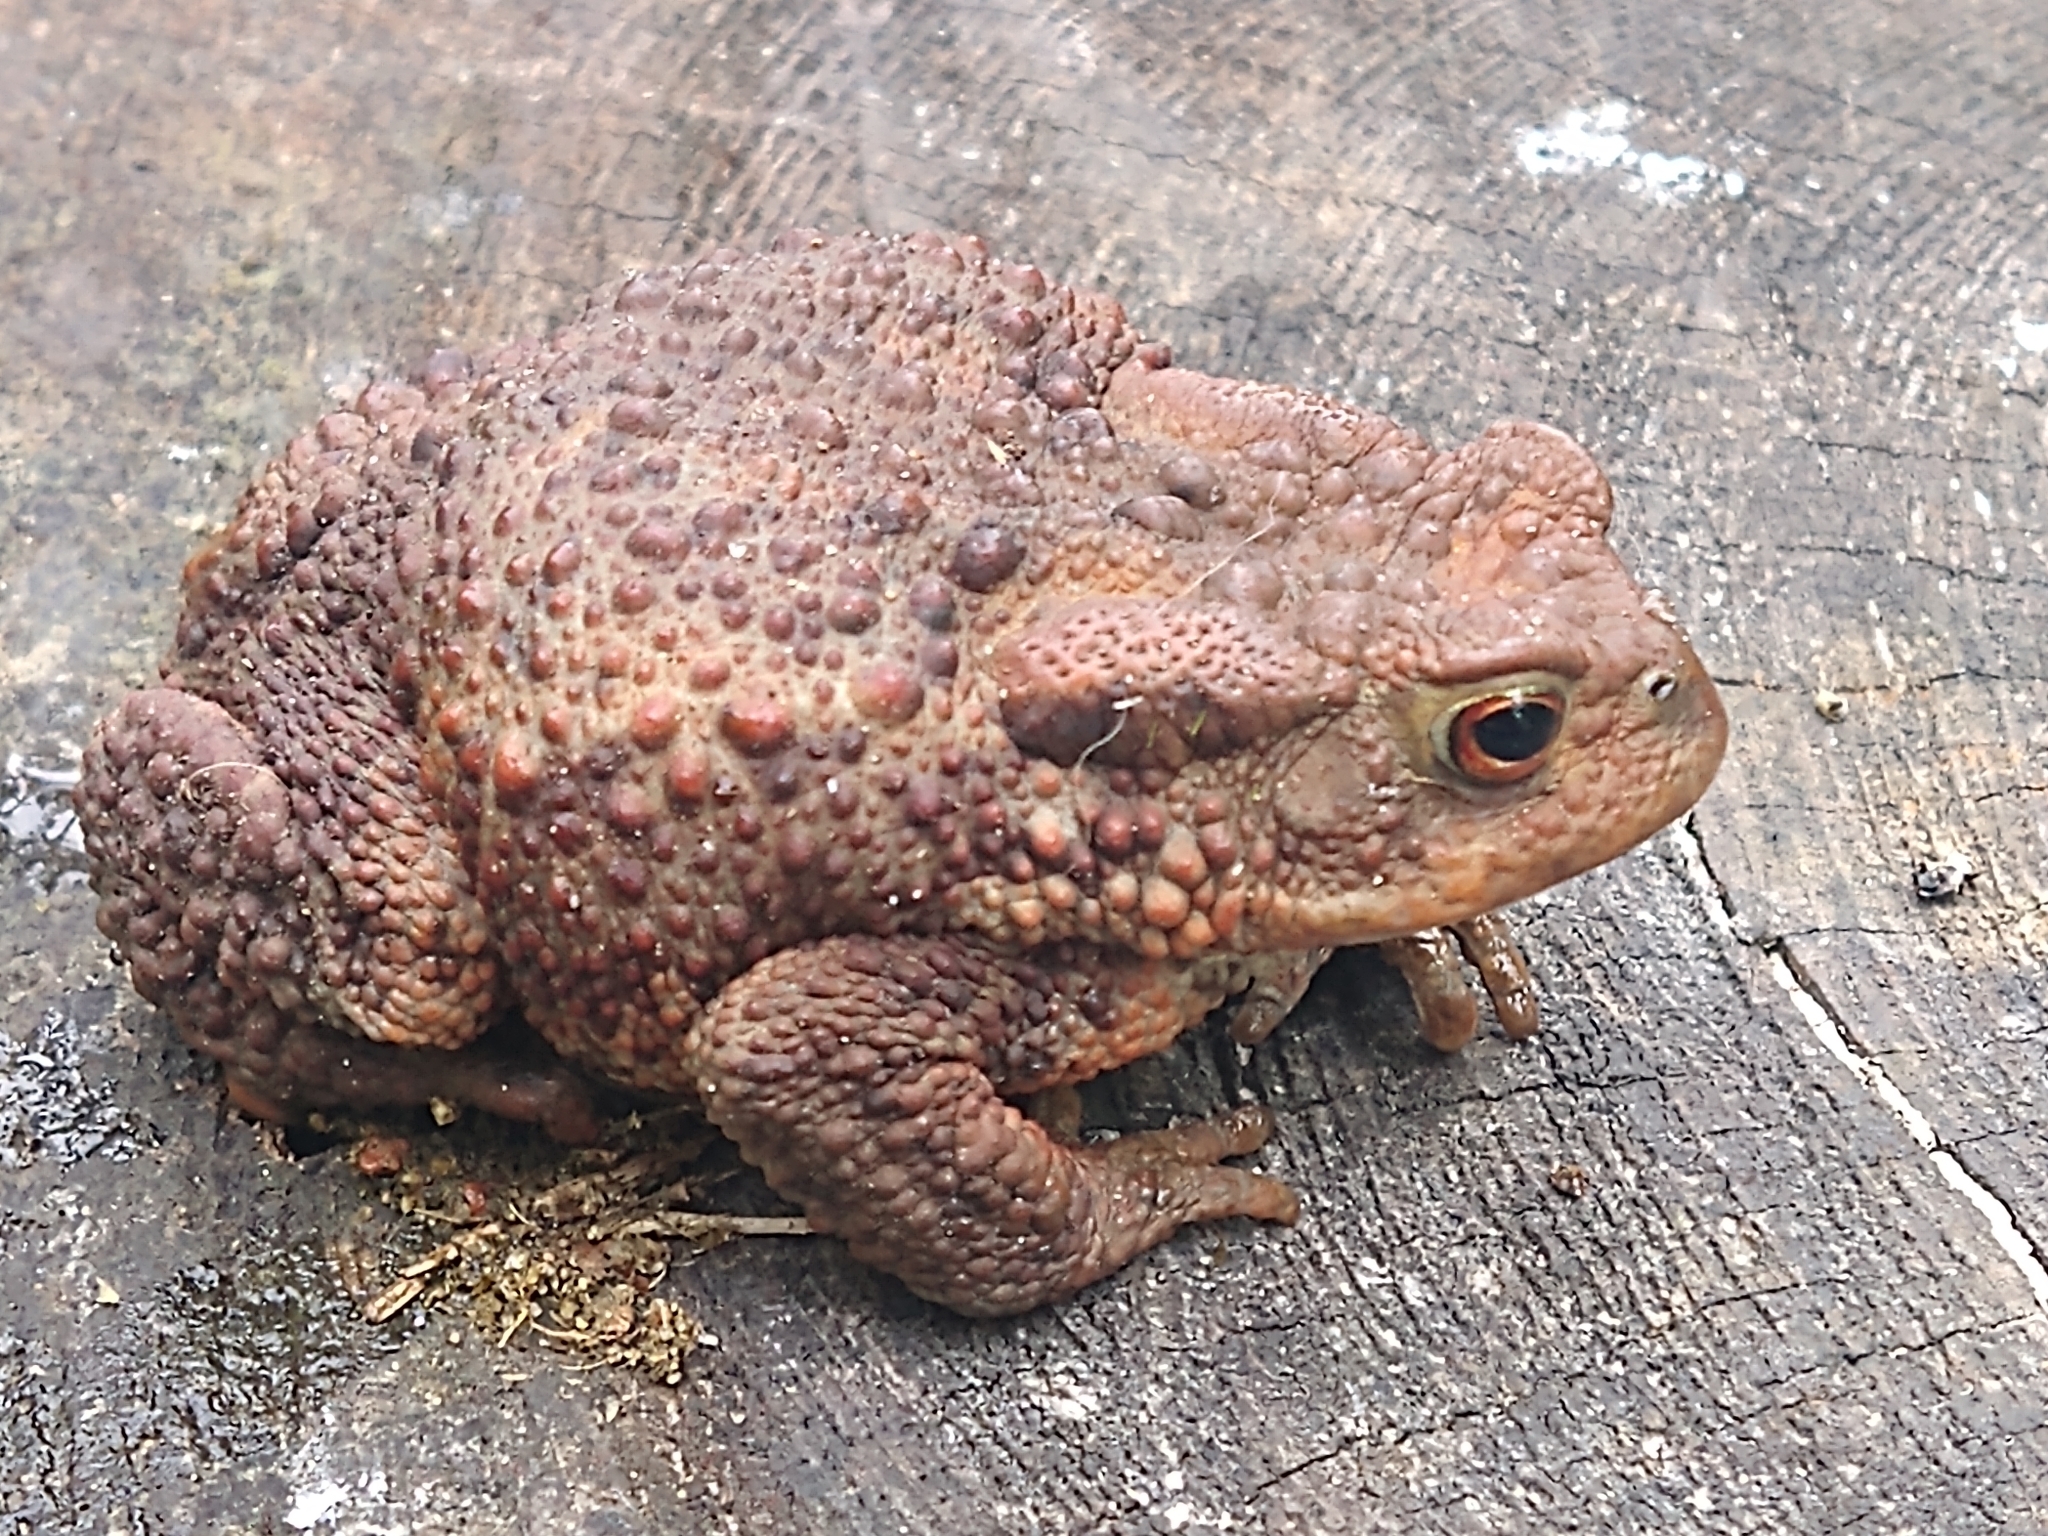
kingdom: Animalia
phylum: Chordata
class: Amphibia
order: Anura
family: Bufonidae
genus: Bufo
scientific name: Bufo bufo
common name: Common toad
